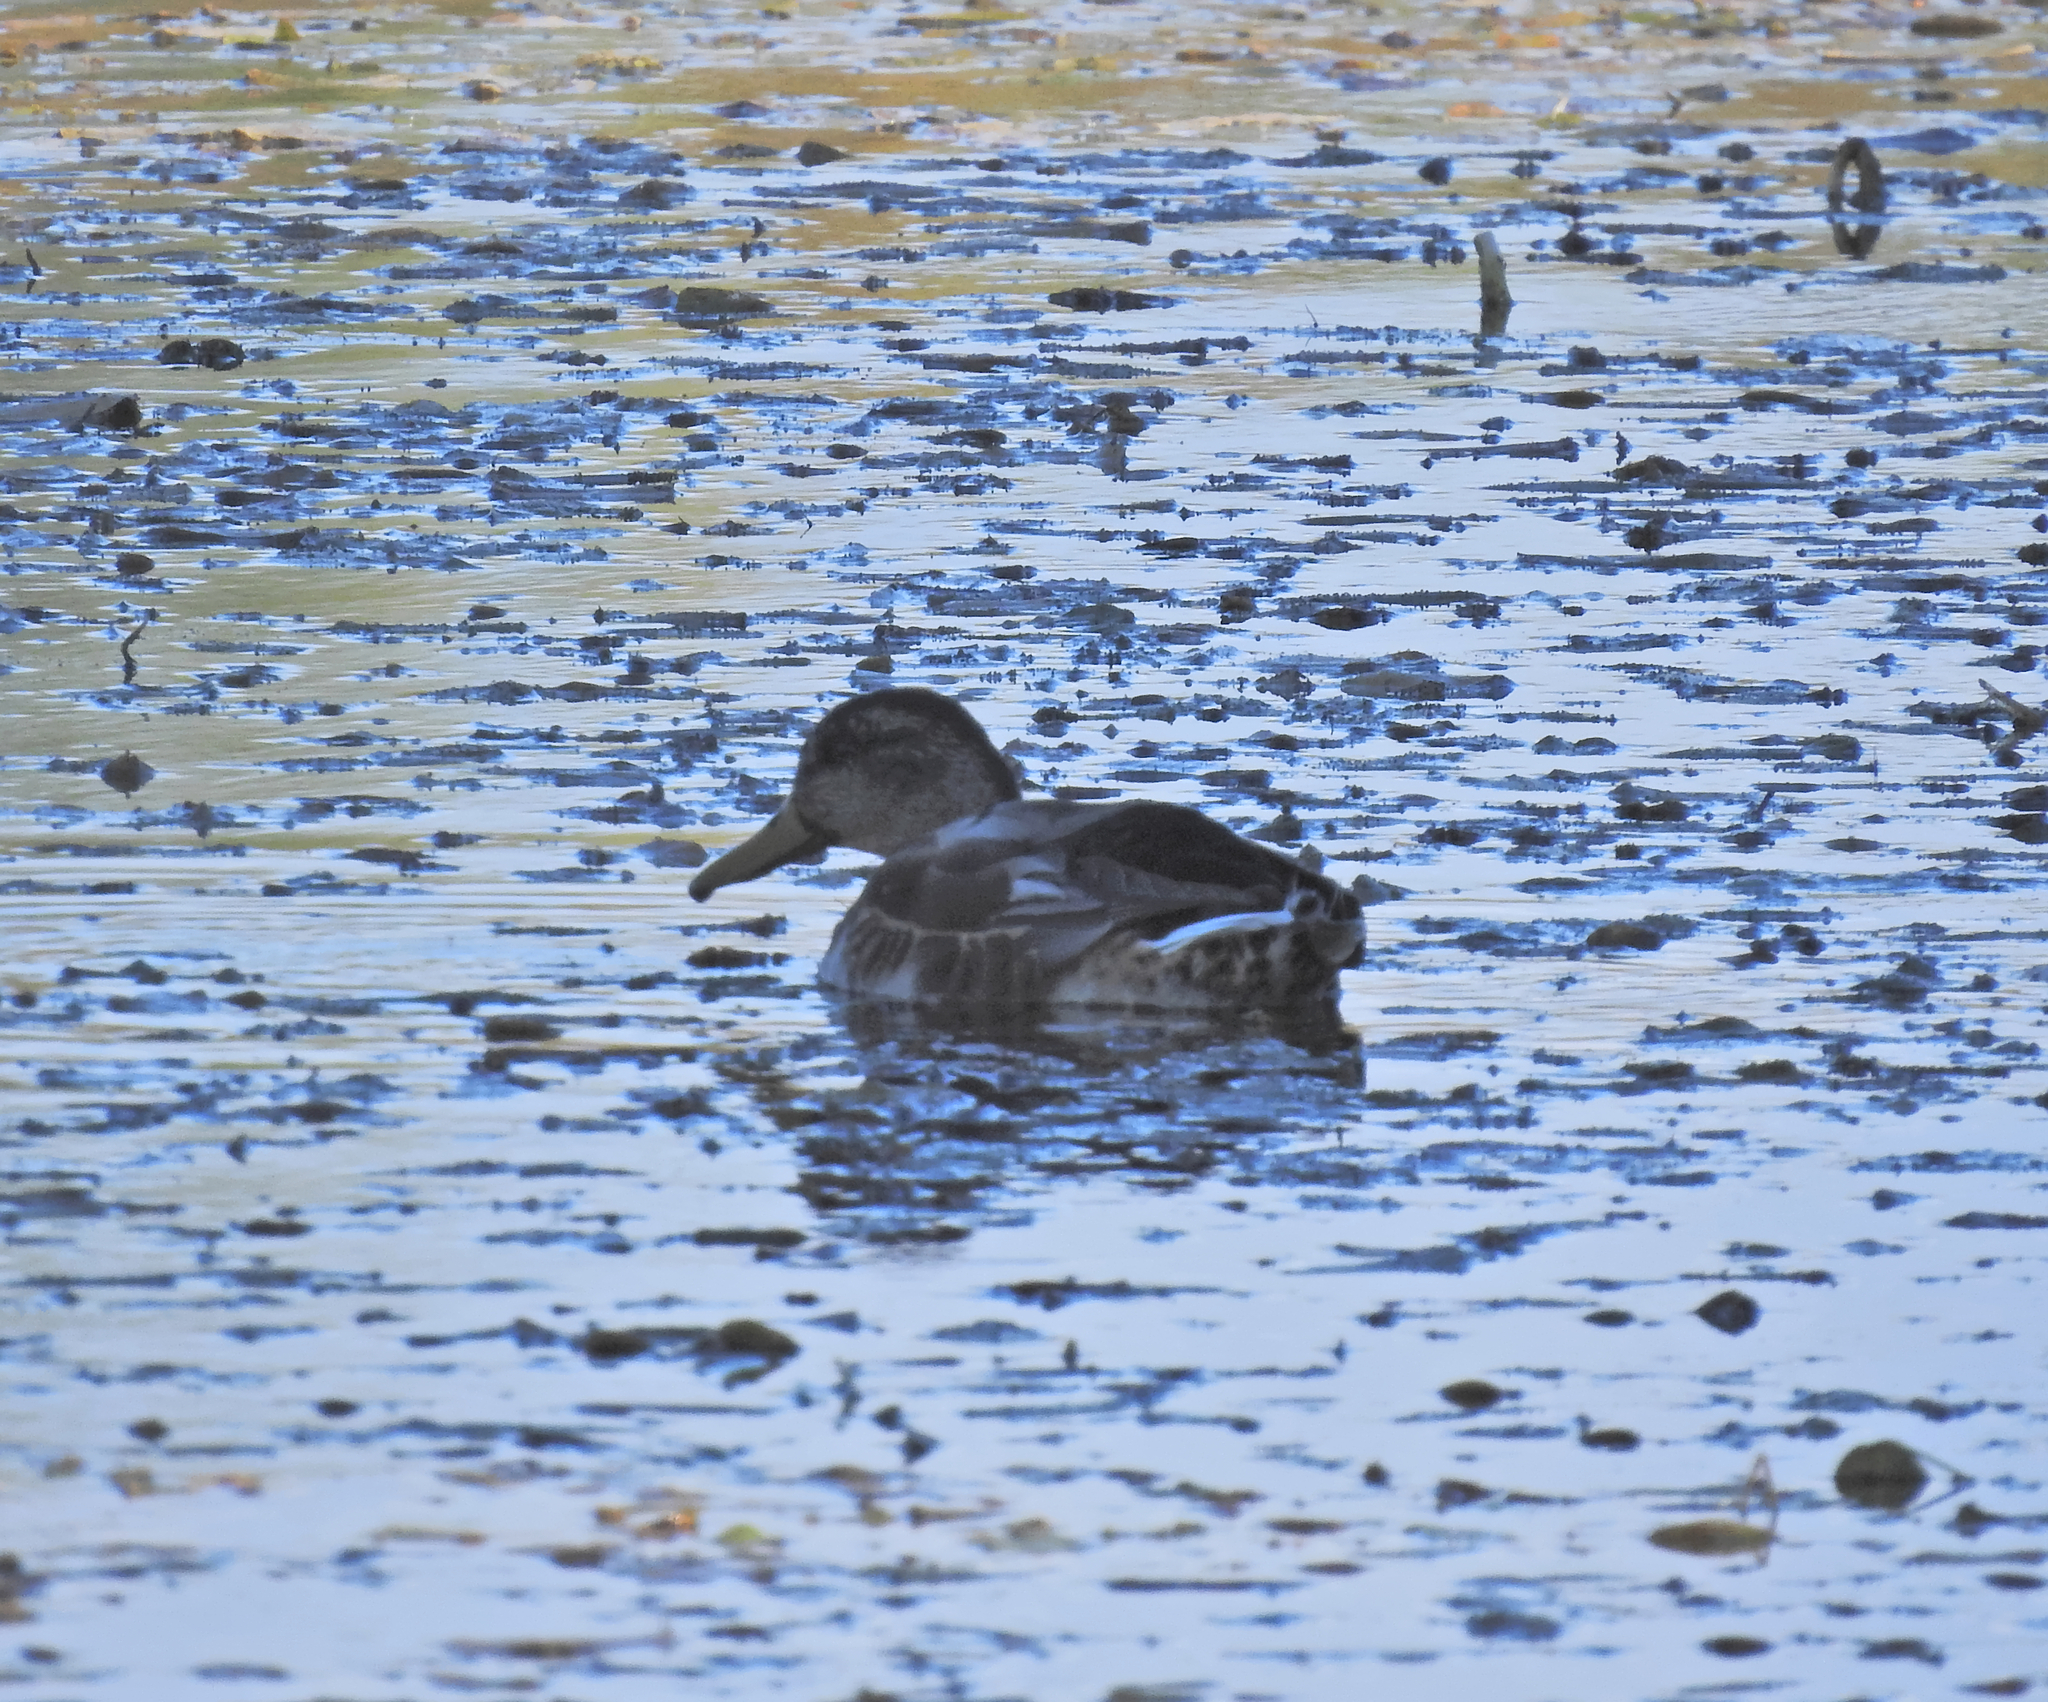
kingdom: Animalia
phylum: Chordata
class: Aves
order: Anseriformes
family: Anatidae
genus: Anas
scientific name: Anas platyrhynchos
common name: Mallard
